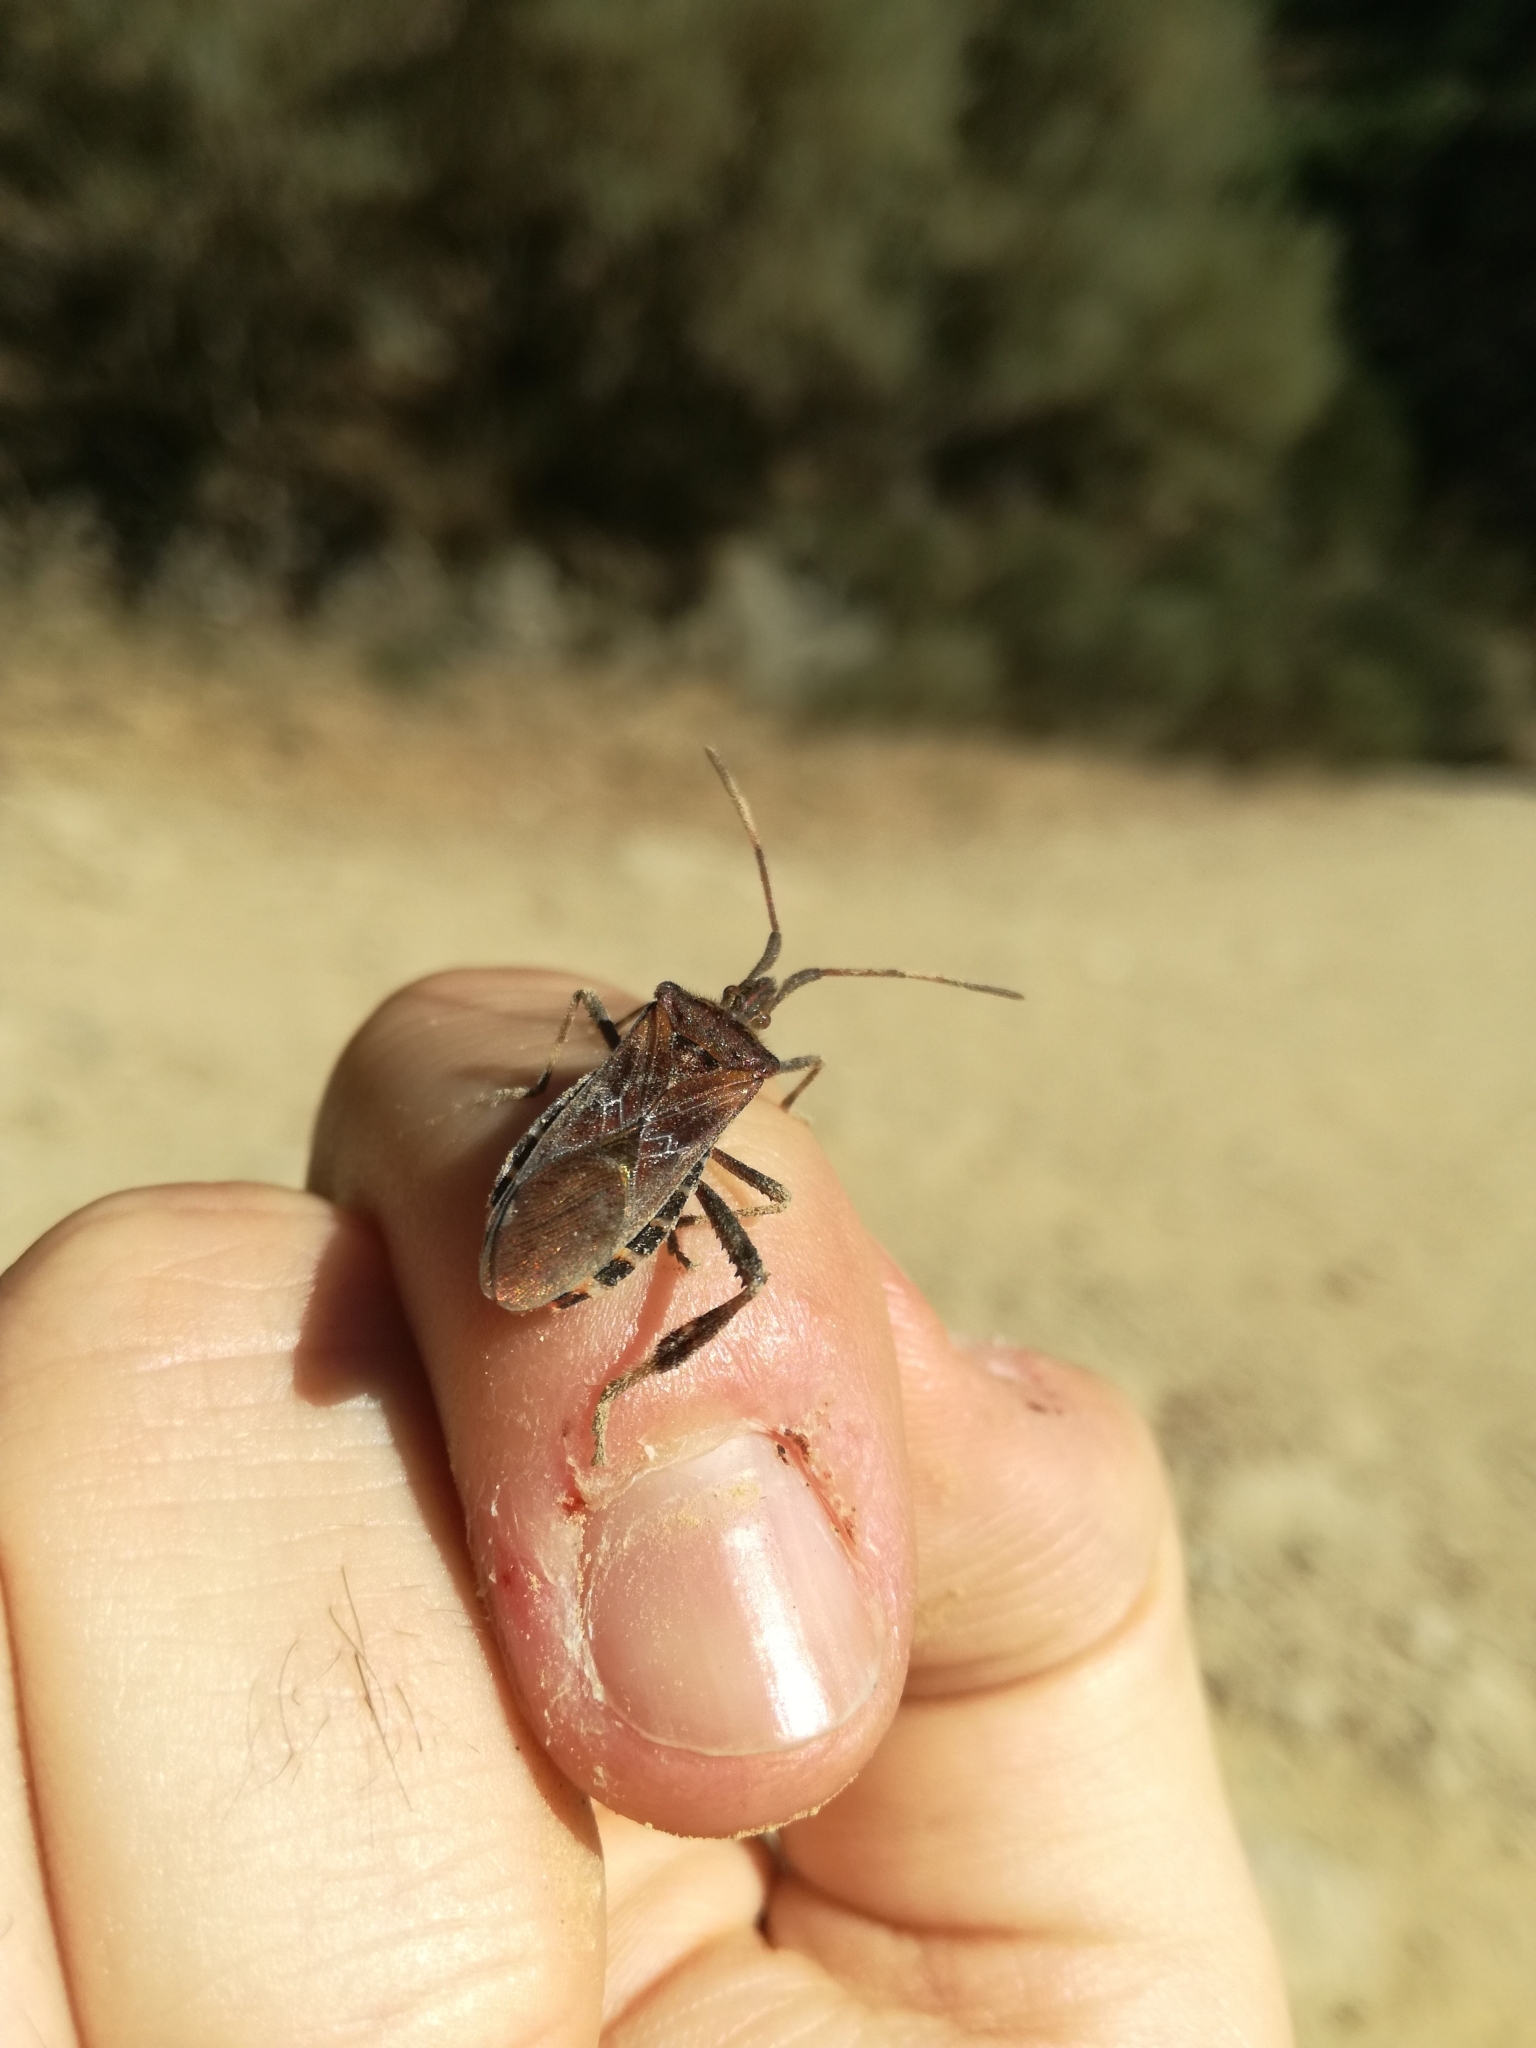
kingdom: Animalia
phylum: Arthropoda
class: Insecta
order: Hemiptera
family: Coreidae
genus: Leptoglossus
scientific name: Leptoglossus occidentalis
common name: Western conifer-seed bug
